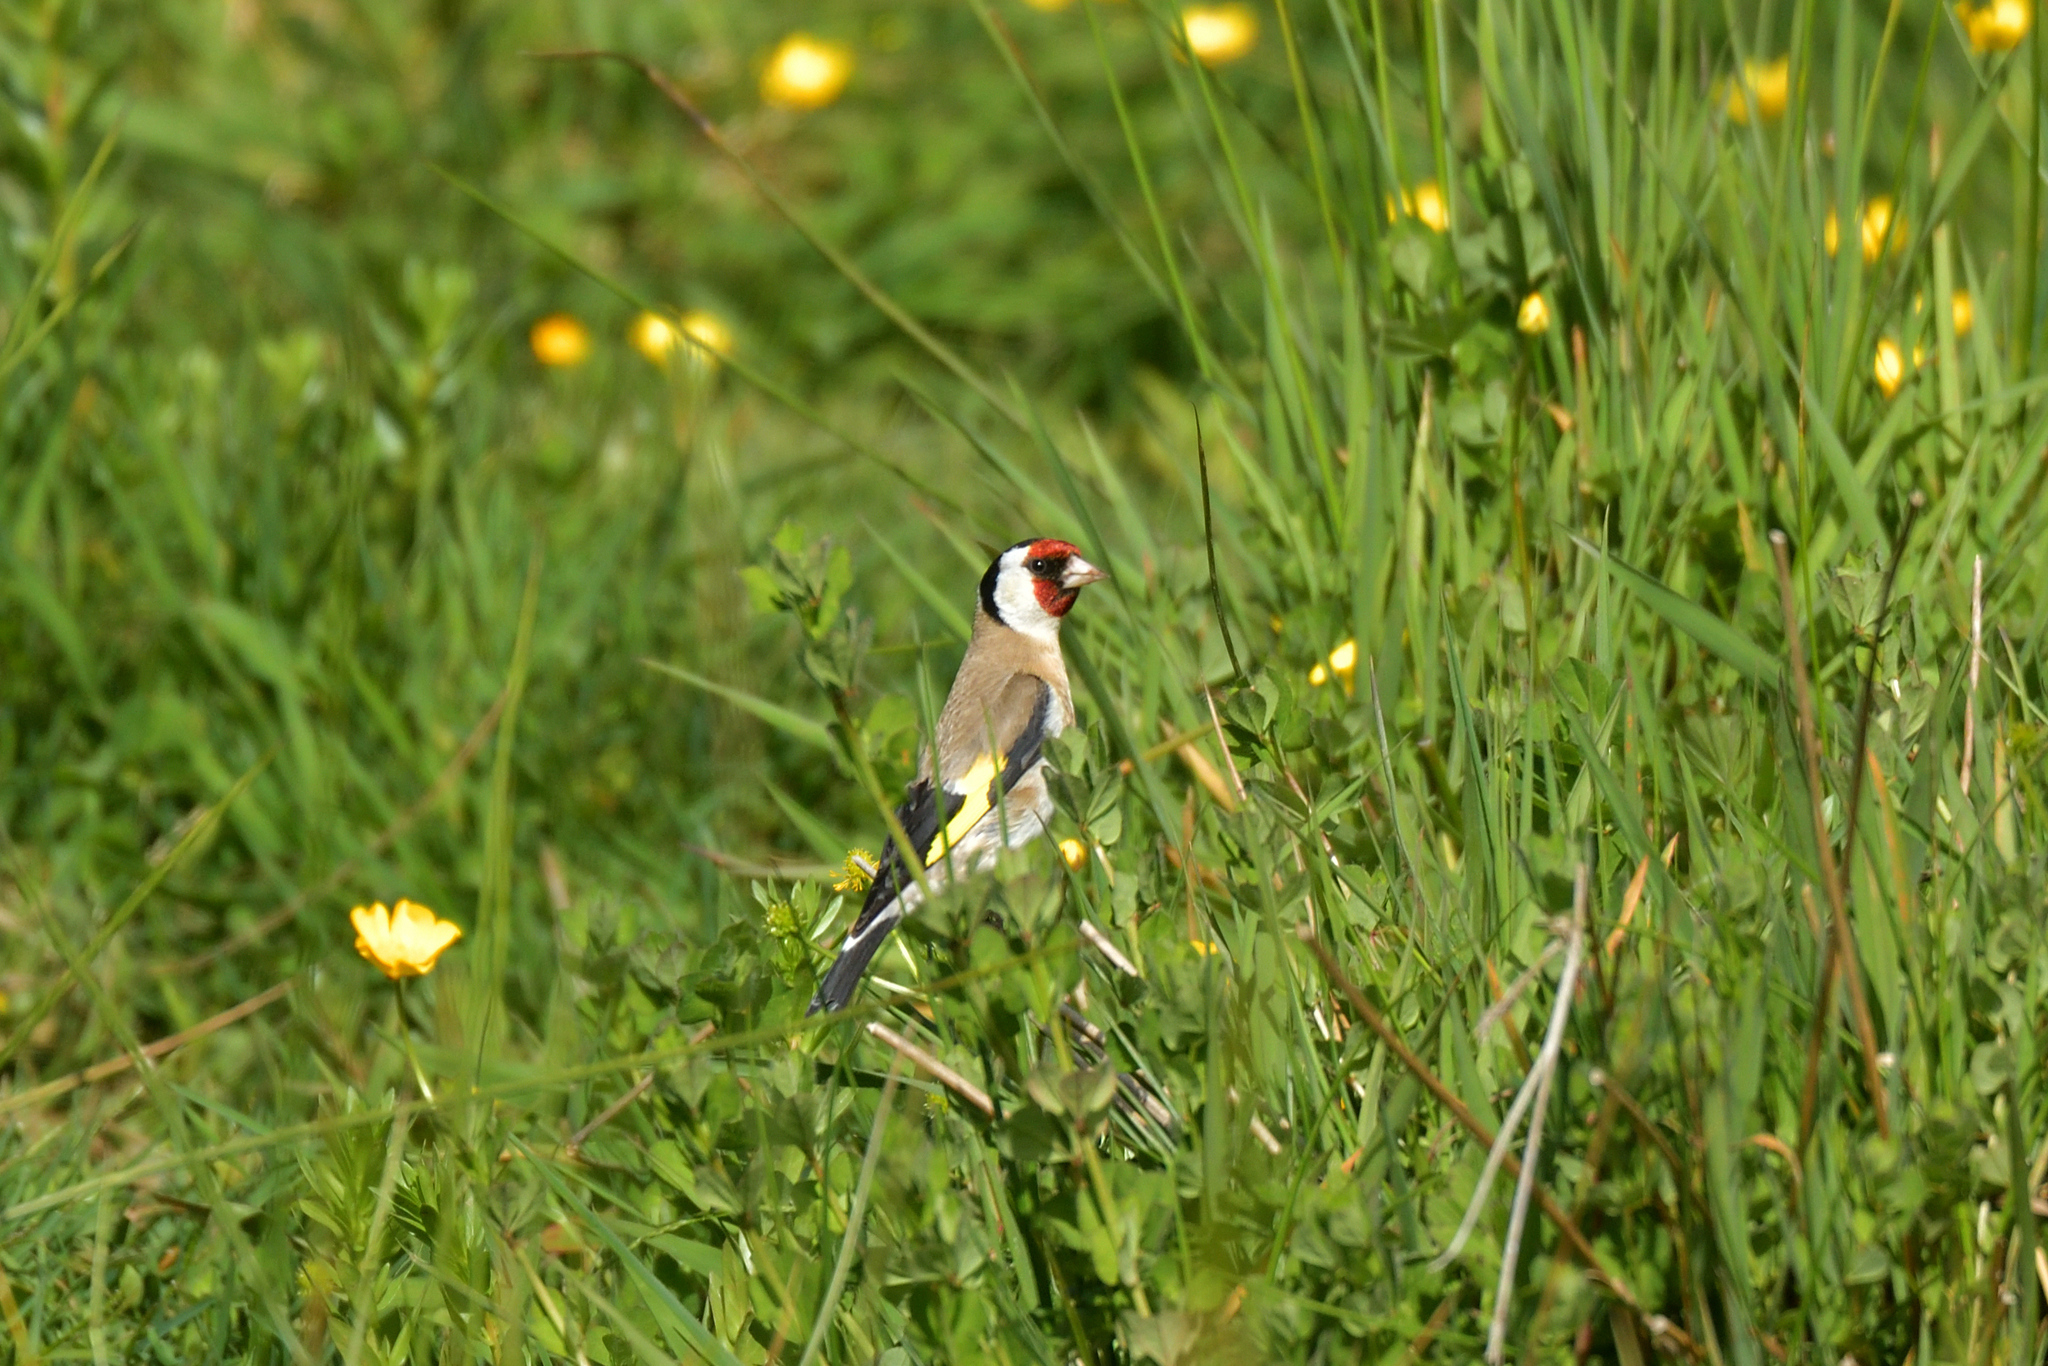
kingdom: Animalia
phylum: Chordata
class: Aves
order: Passeriformes
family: Fringillidae
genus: Carduelis
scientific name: Carduelis carduelis
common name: European goldfinch
